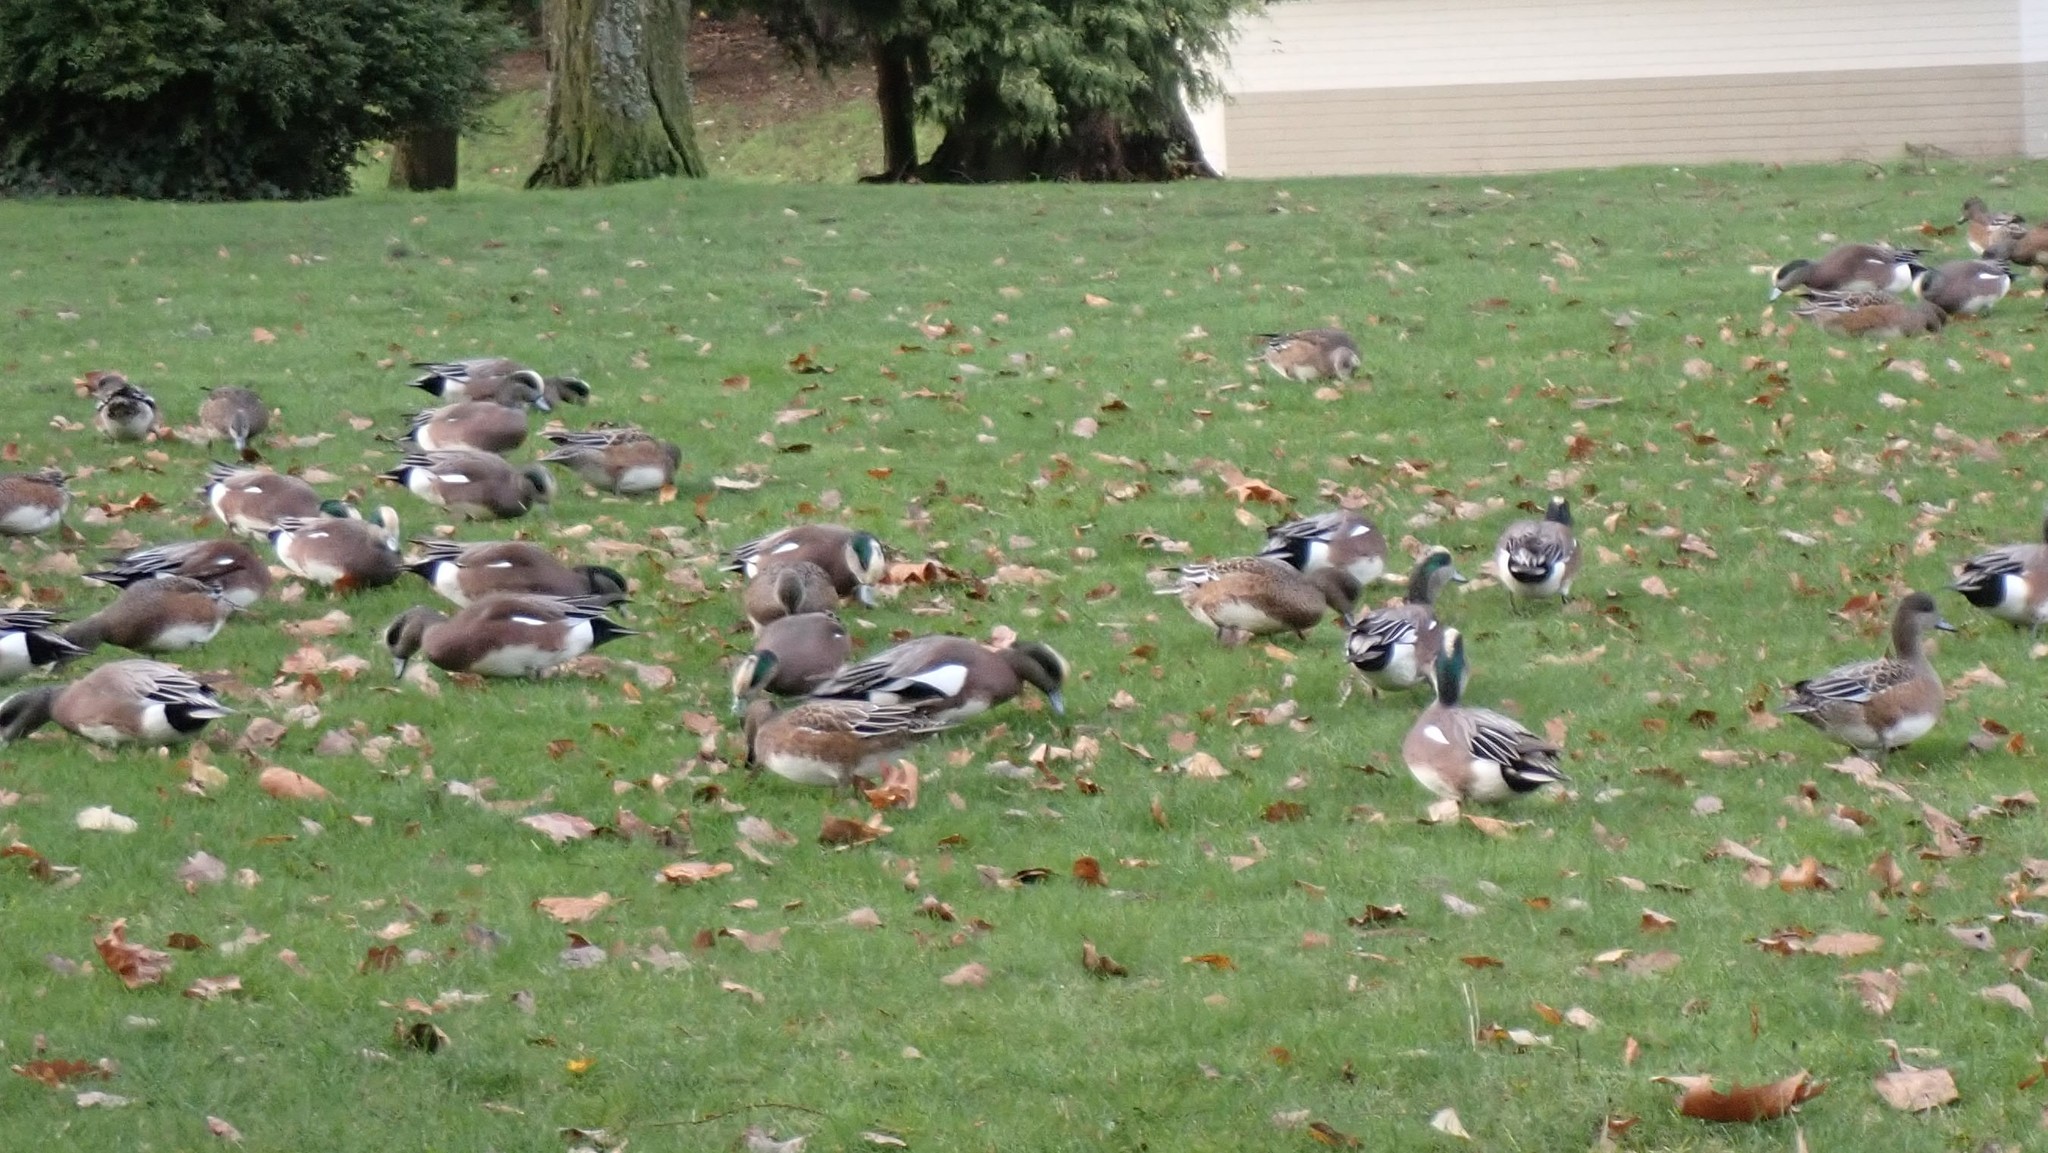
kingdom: Animalia
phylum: Chordata
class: Aves
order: Anseriformes
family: Anatidae
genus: Mareca
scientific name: Mareca americana
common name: American wigeon
